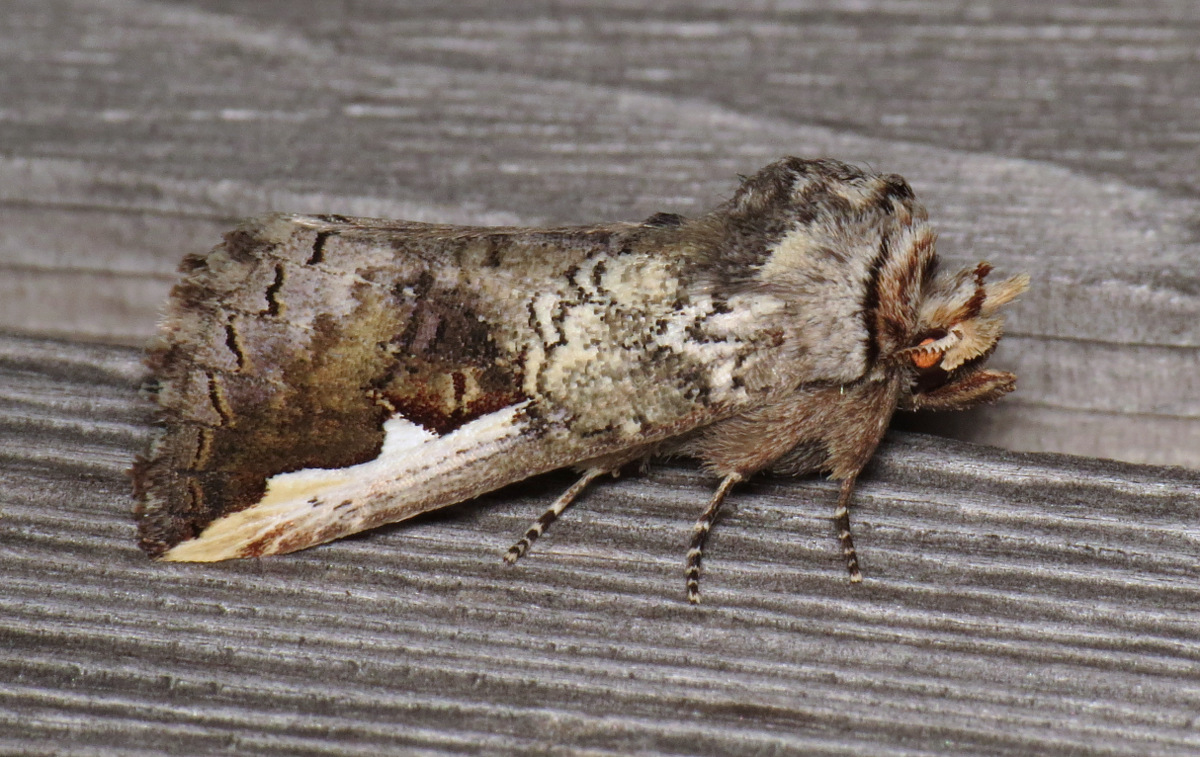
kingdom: Animalia
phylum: Arthropoda
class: Insecta
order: Lepidoptera
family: Notodontidae
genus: Symmerista
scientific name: Symmerista
